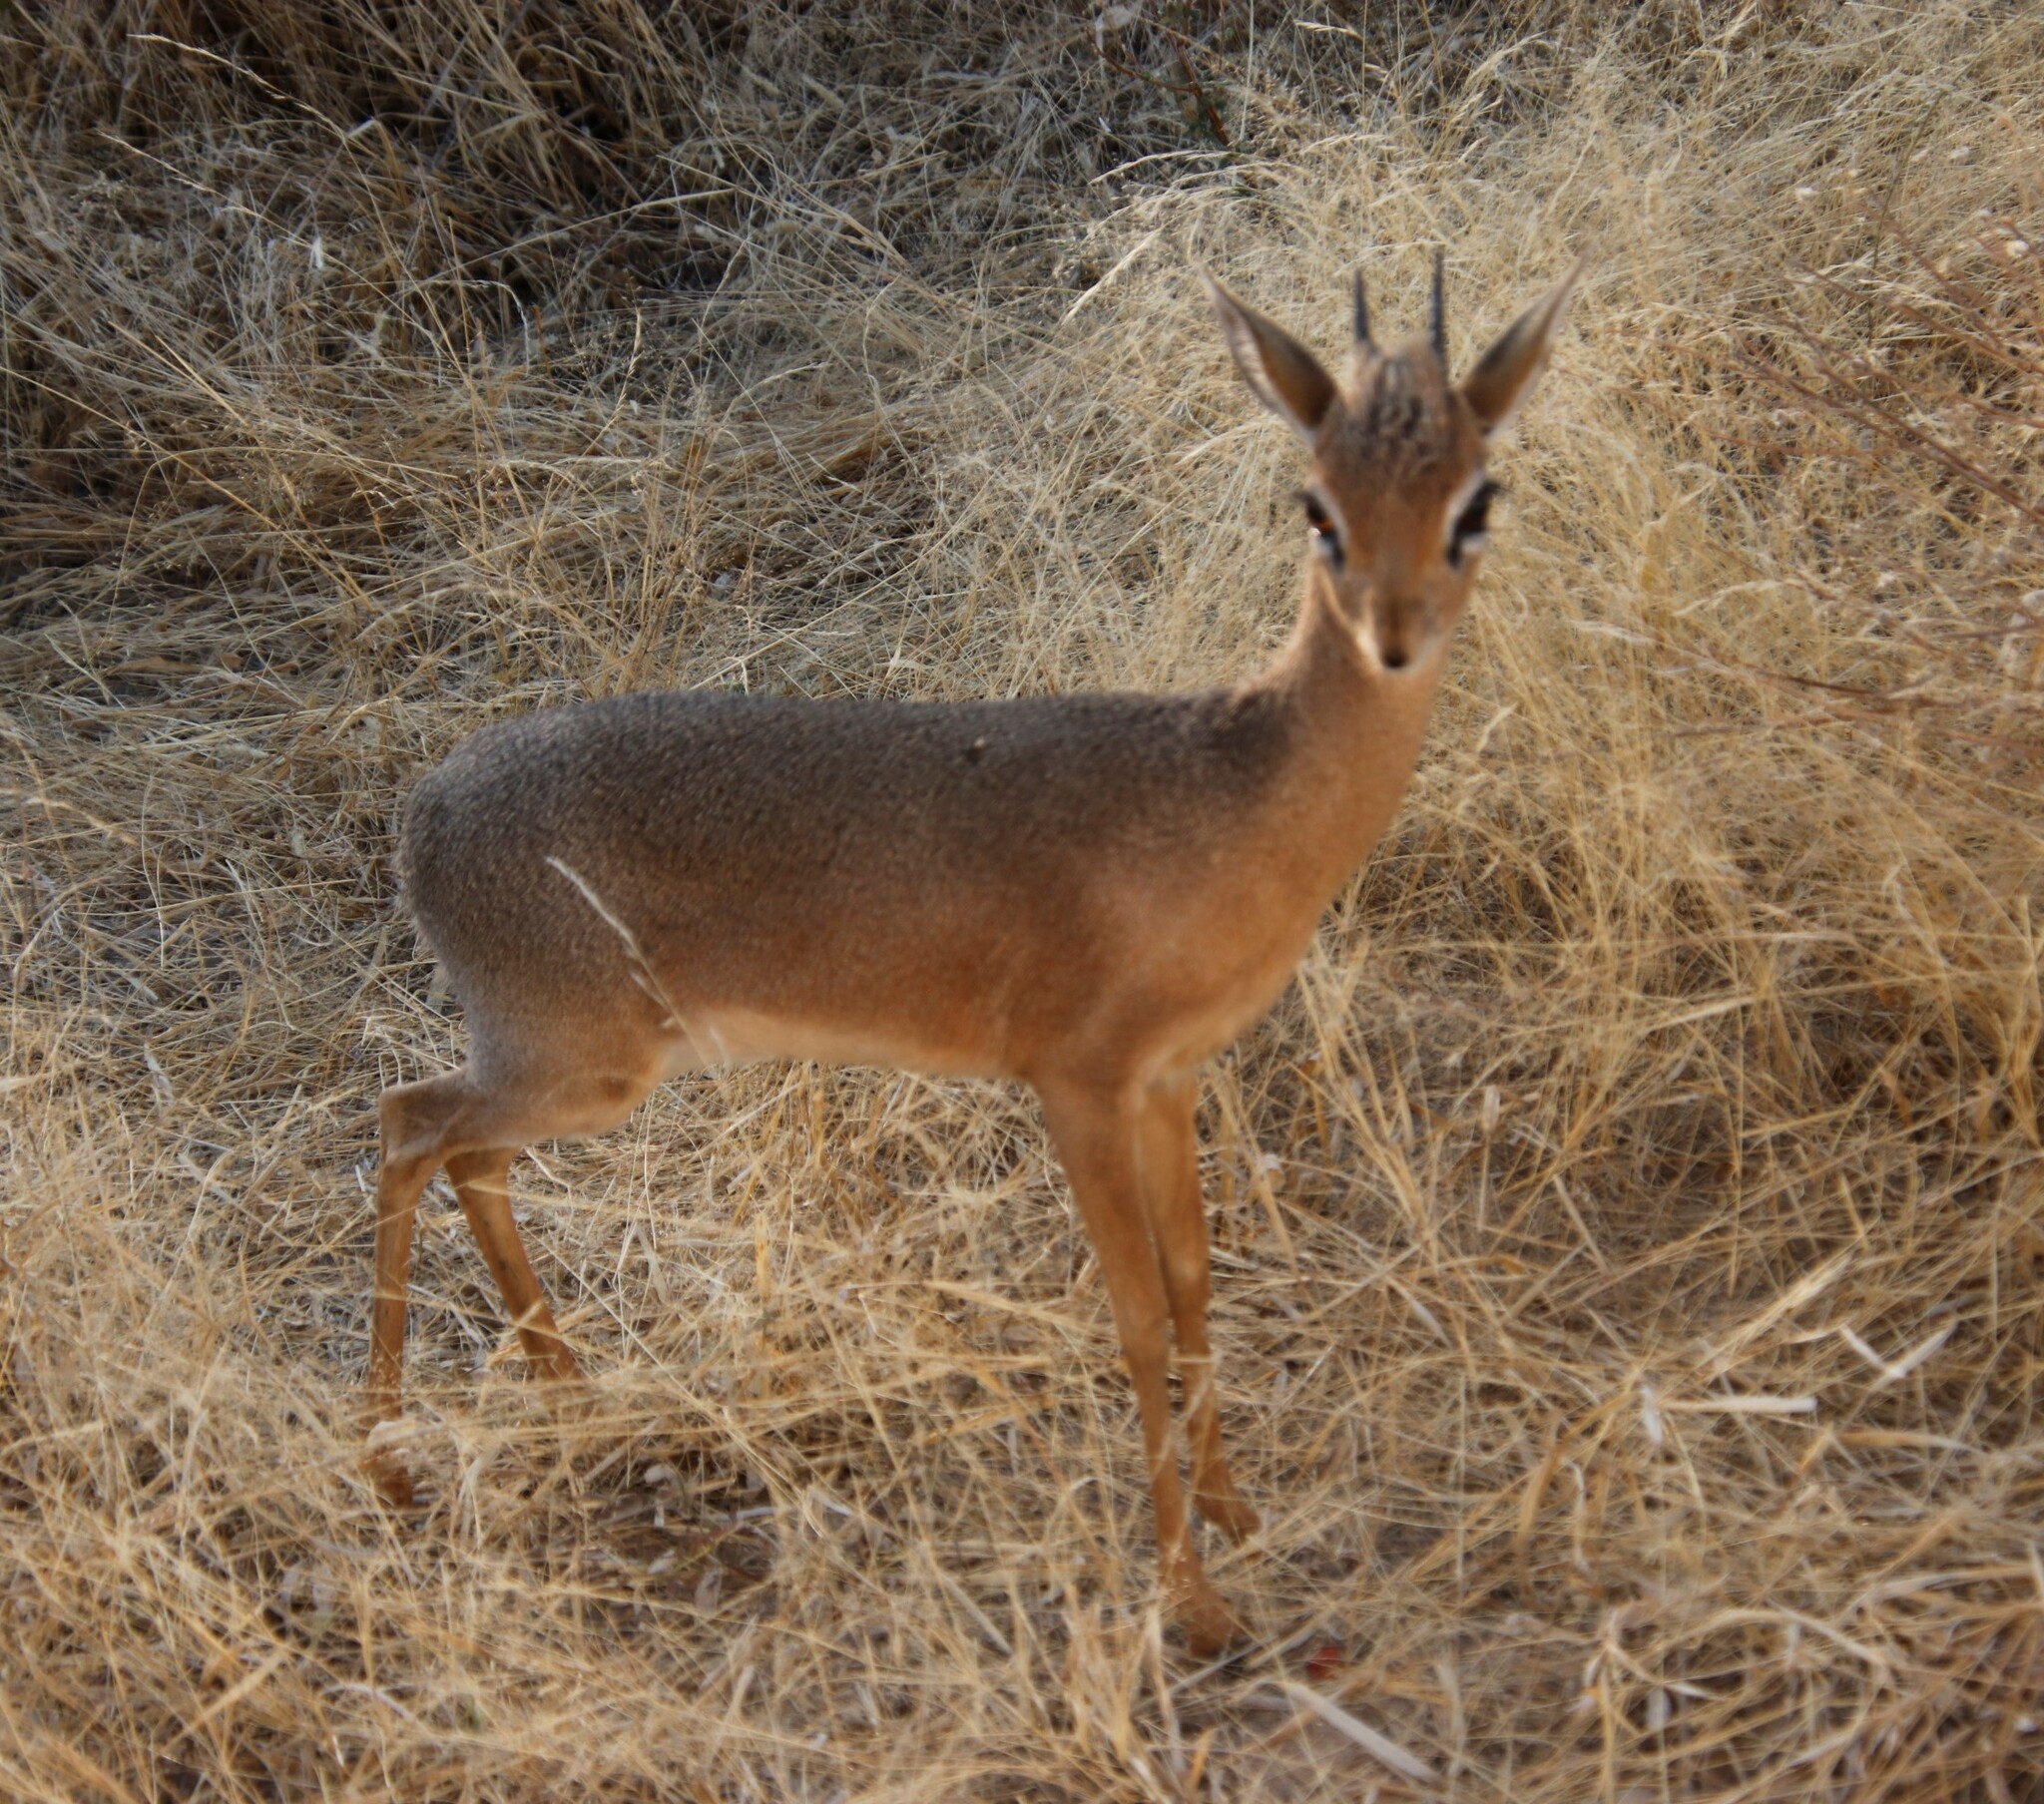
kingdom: Animalia
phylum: Chordata
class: Mammalia
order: Artiodactyla
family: Bovidae
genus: Madoqua
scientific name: Madoqua kirkii
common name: Kirk's dik-dik
